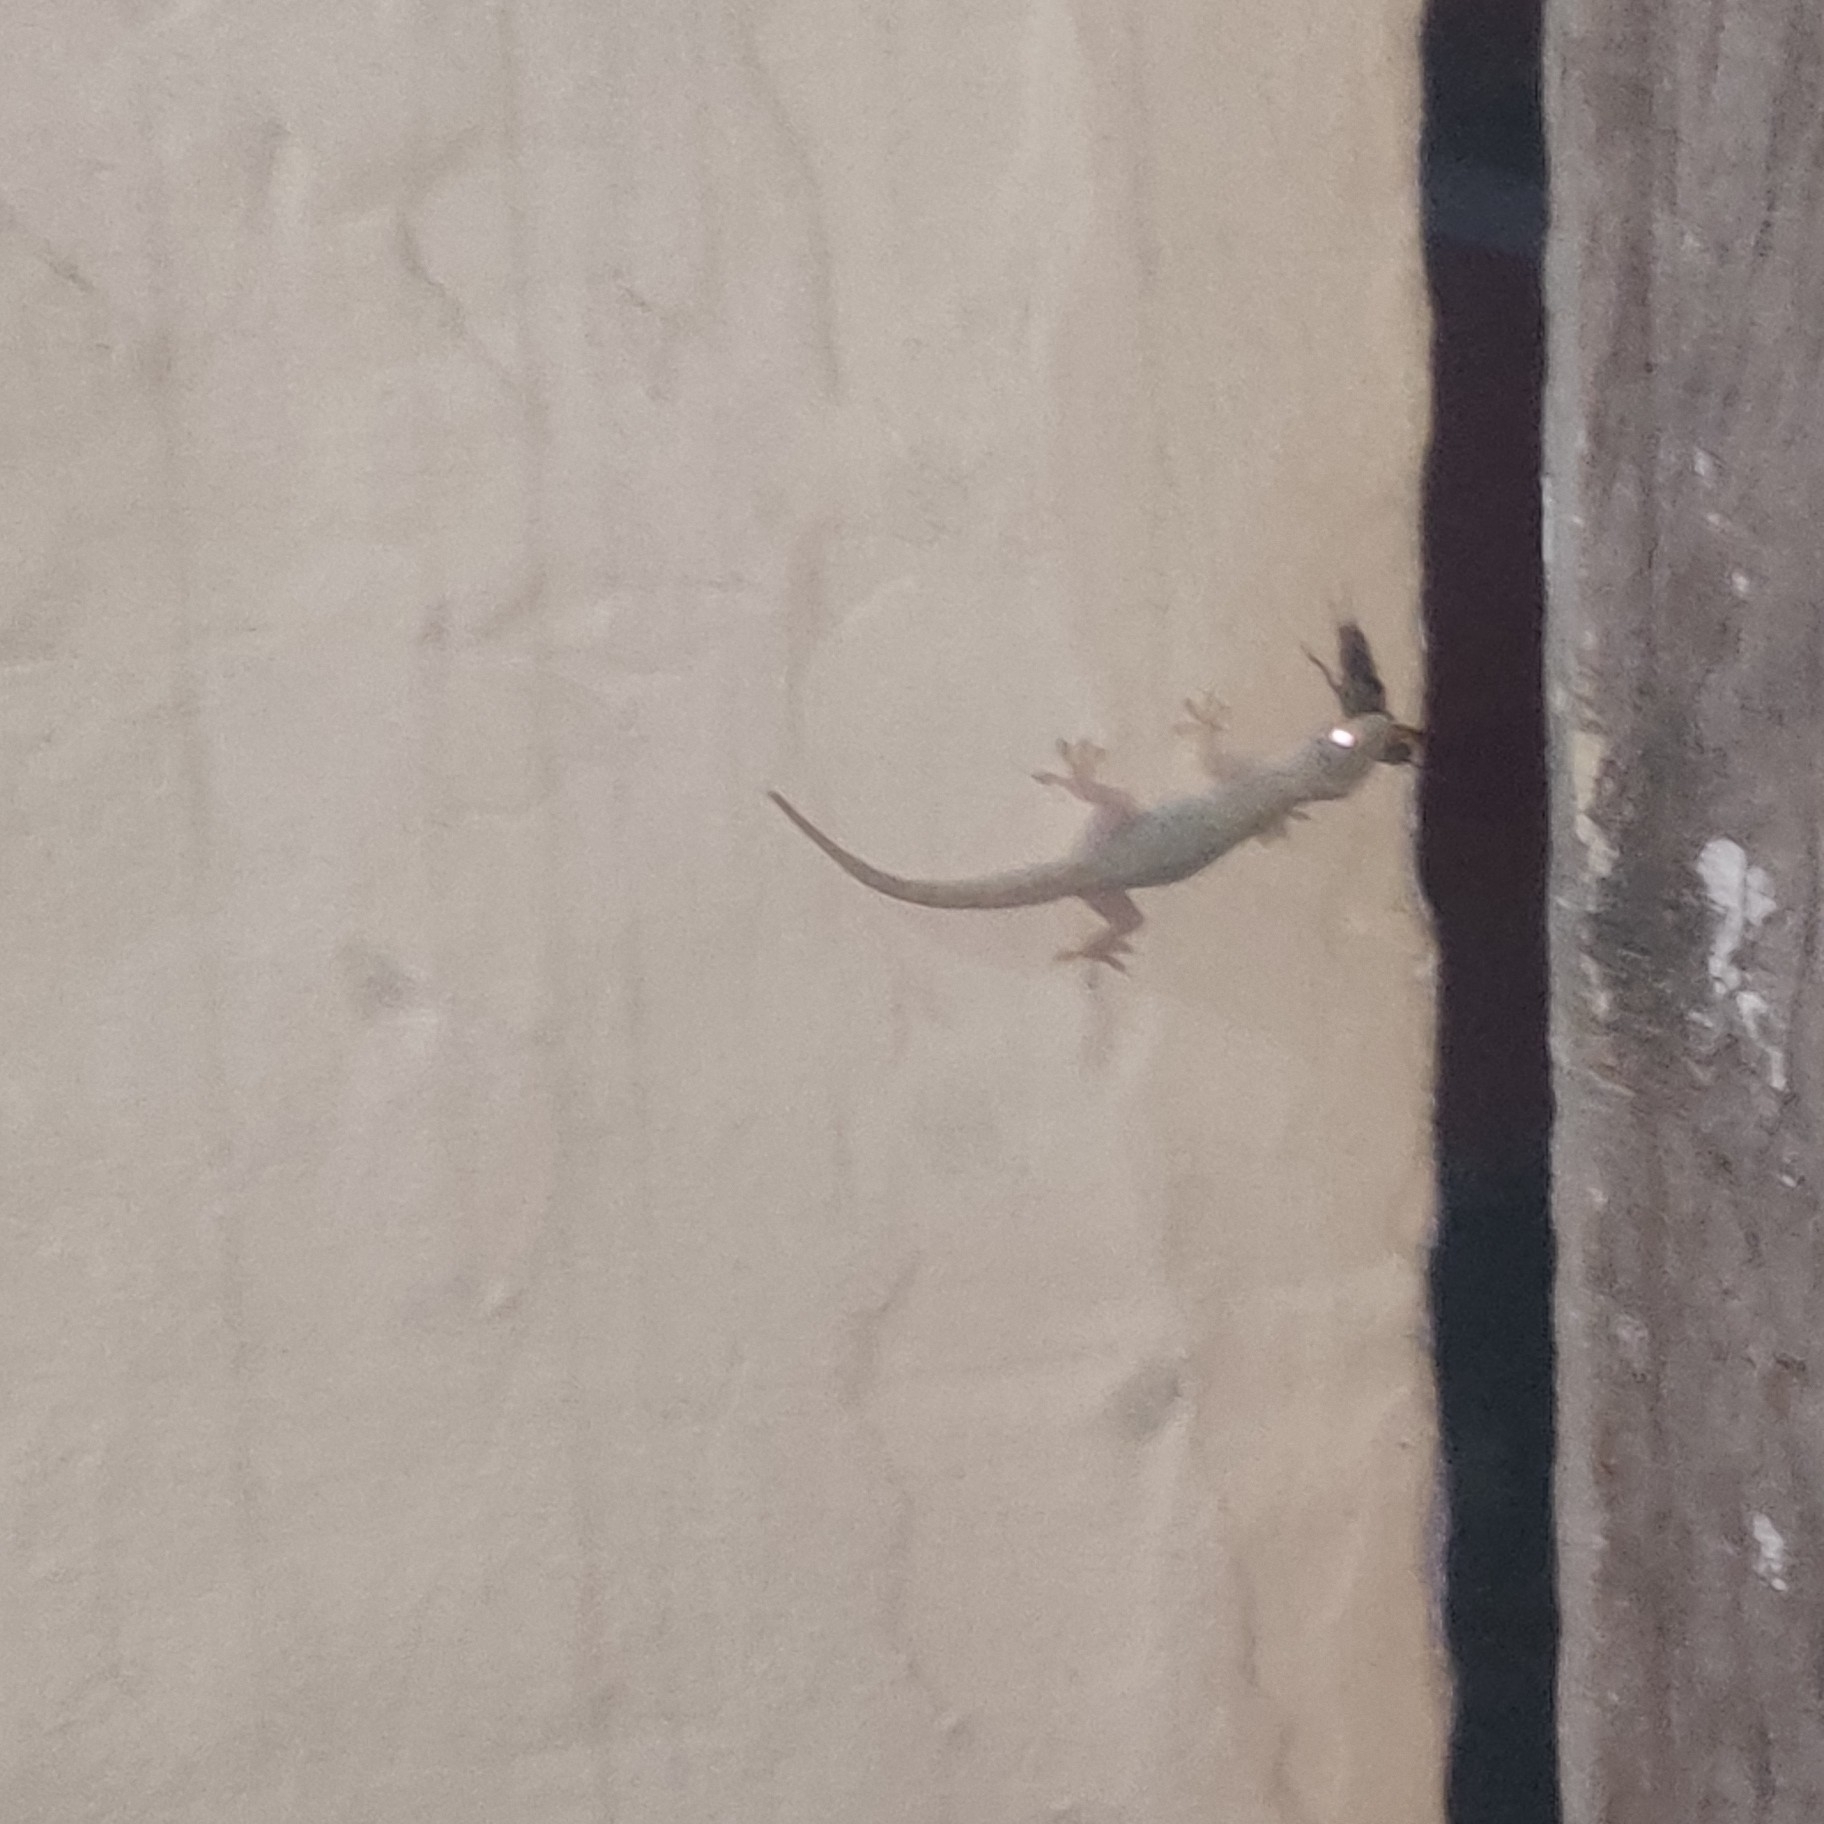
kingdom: Animalia
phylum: Chordata
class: Squamata
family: Gekkonidae
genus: Hemidactylus
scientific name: Hemidactylus flaviviridis
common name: Northern house gecko
